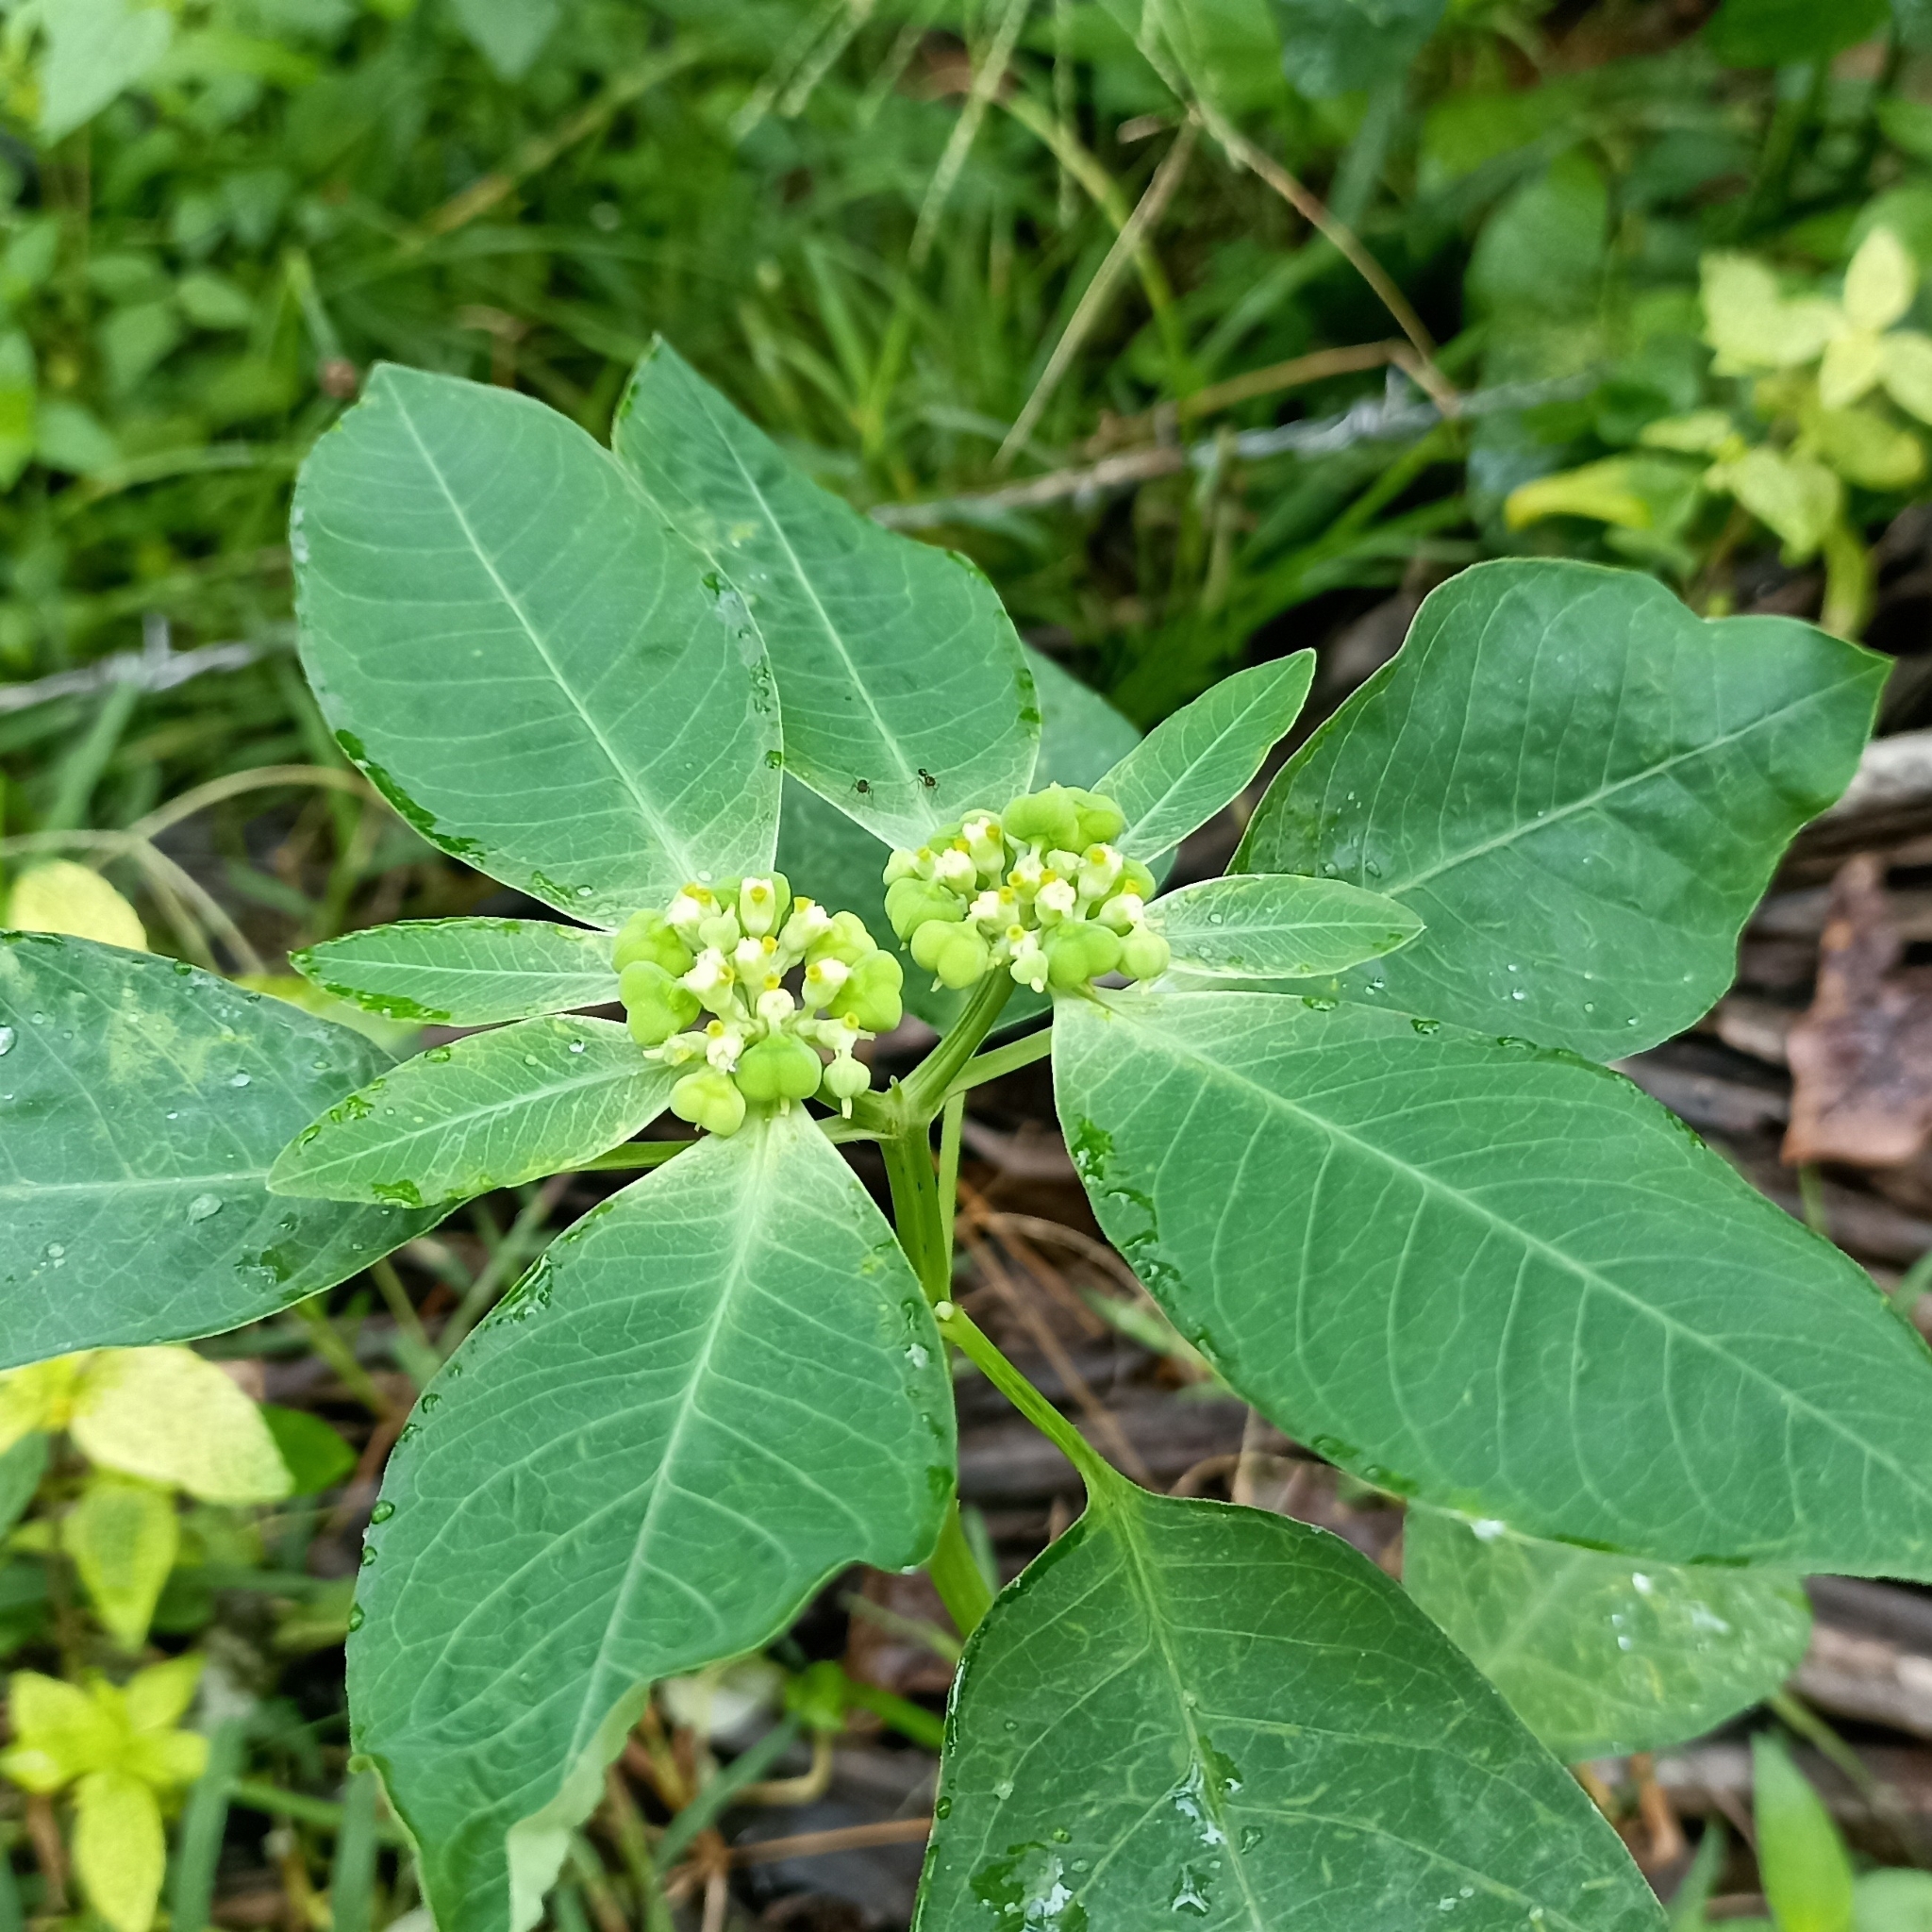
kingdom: Plantae
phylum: Tracheophyta
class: Magnoliopsida
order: Malpighiales
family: Euphorbiaceae
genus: Euphorbia
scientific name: Euphorbia heterophylla
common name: Mexican fireplant
